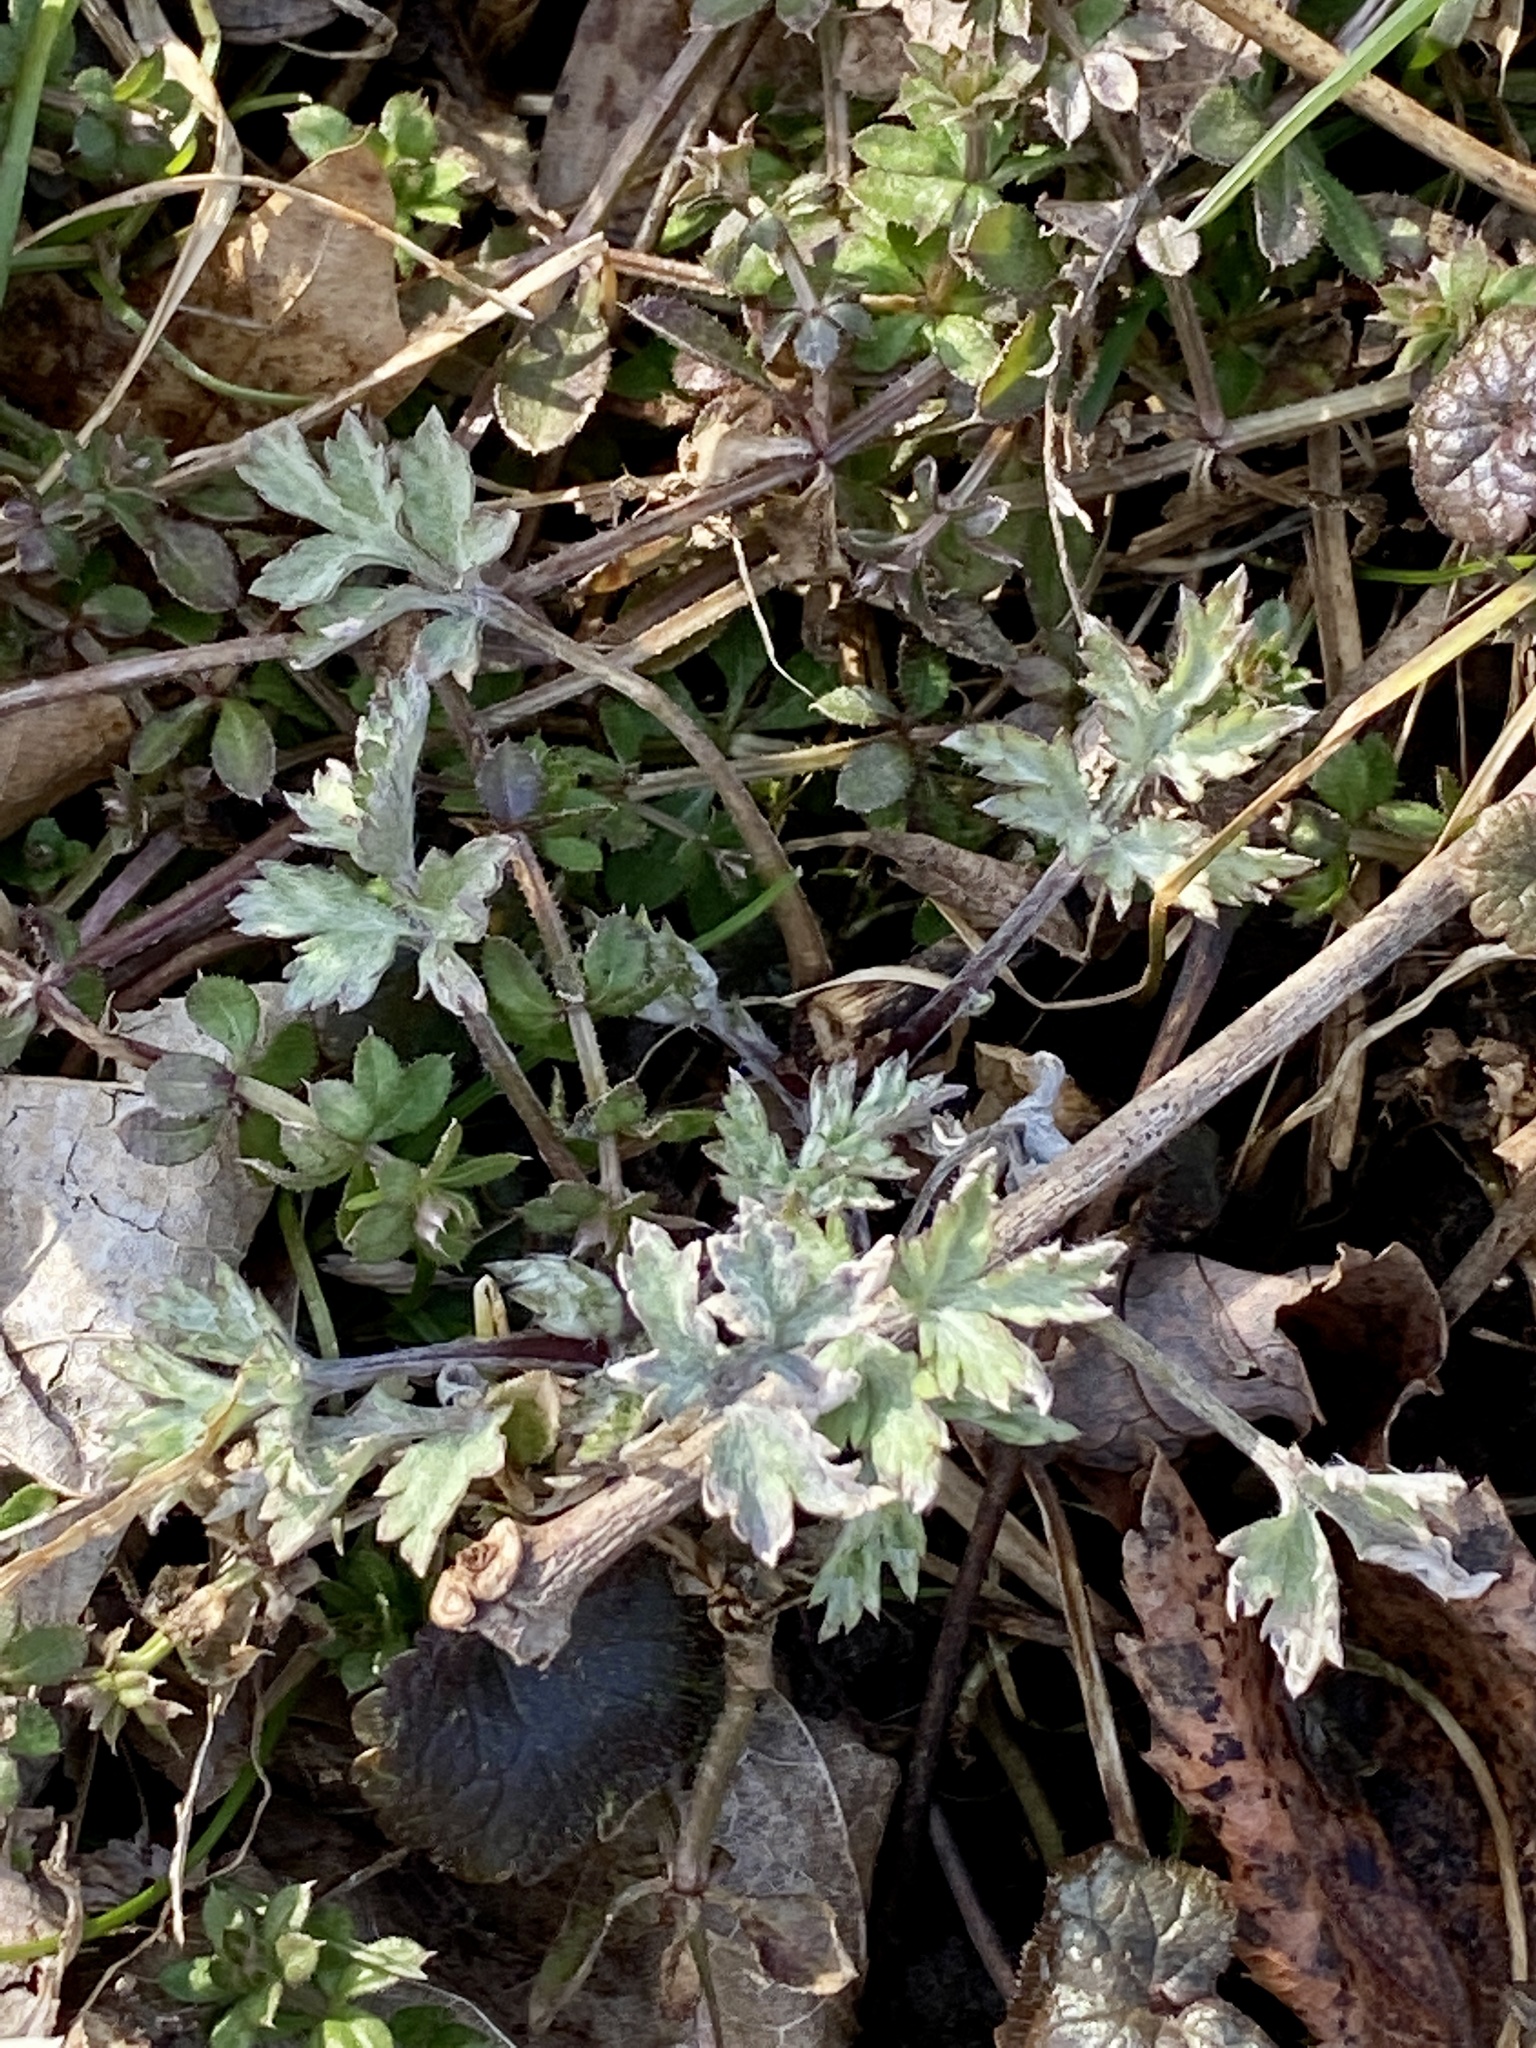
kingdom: Plantae
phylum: Tracheophyta
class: Magnoliopsida
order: Asterales
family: Asteraceae
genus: Artemisia
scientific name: Artemisia vulgaris
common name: Mugwort
